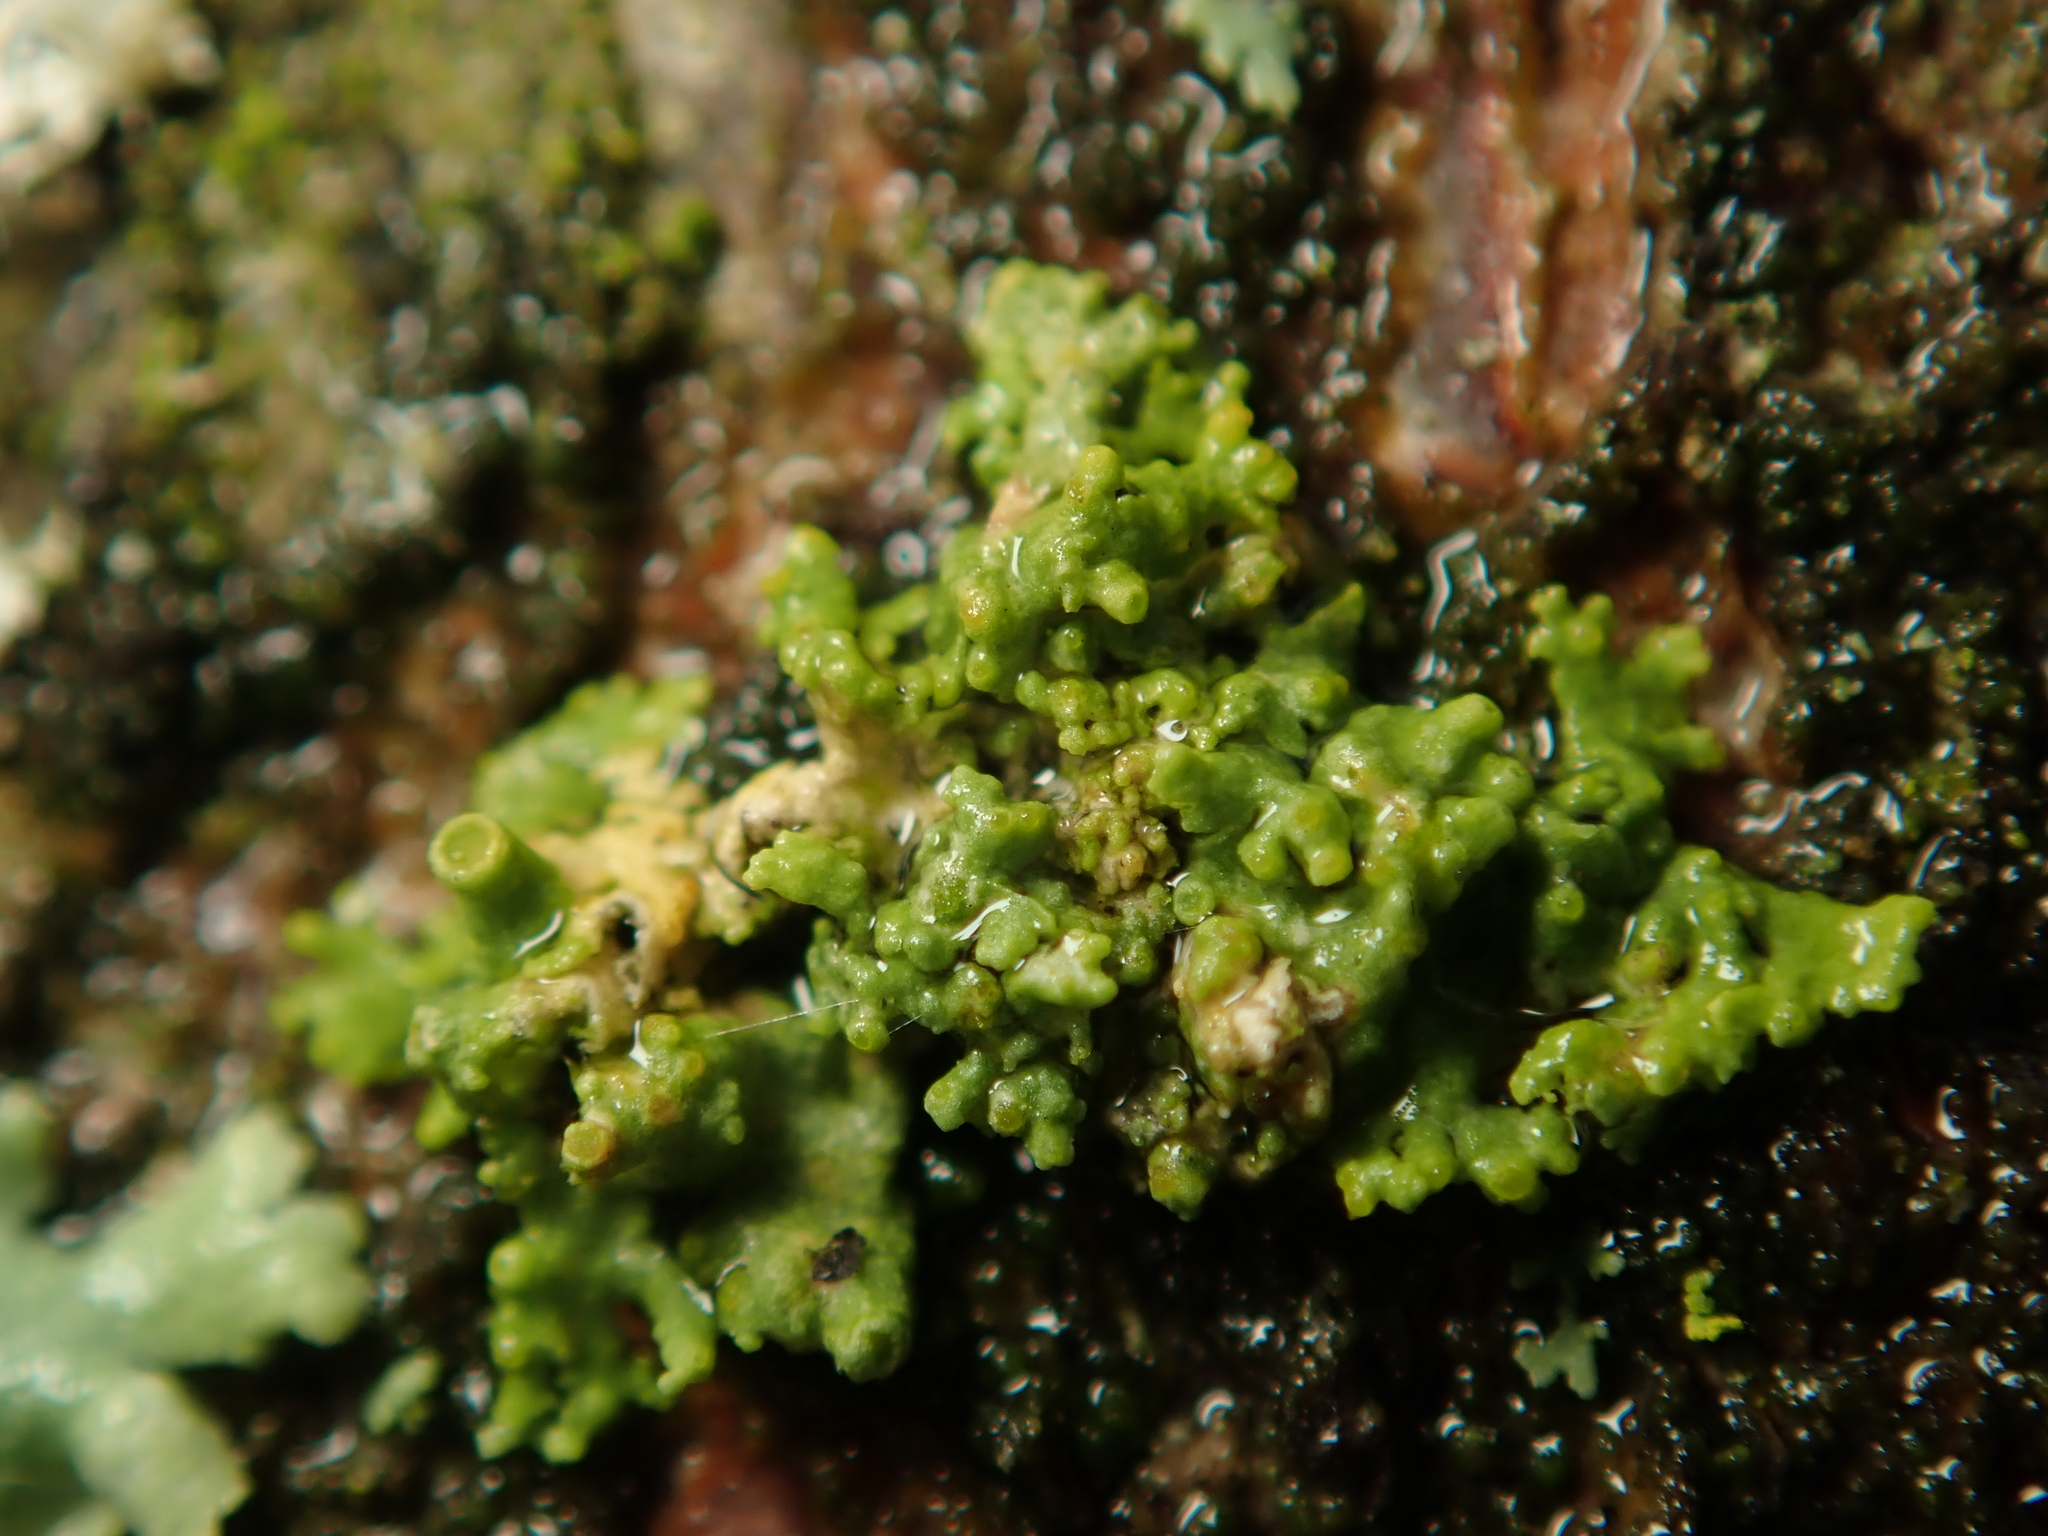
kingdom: Fungi
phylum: Ascomycota
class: Lecanoromycetes
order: Teloschistales
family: Teloschistaceae
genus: Polycauliona
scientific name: Polycauliona polycarpa
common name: Pin-cushion sunburst lichen
